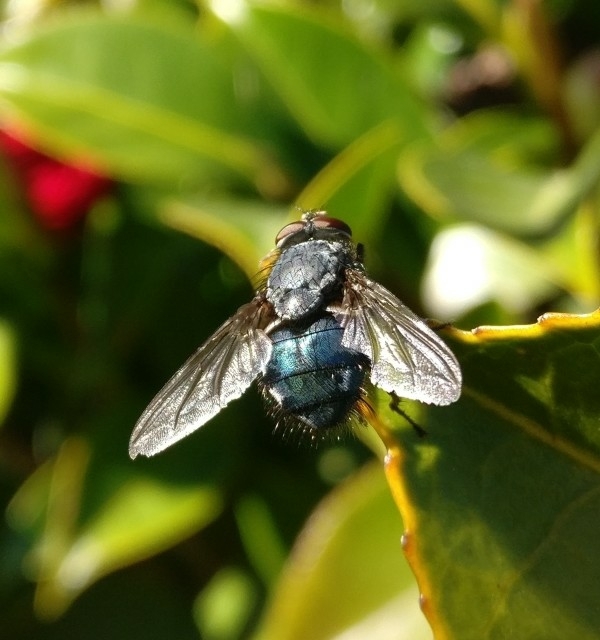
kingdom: Animalia
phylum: Arthropoda
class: Insecta
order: Diptera
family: Calliphoridae
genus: Calliphora
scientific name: Calliphora vicina
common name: Common blow flie
